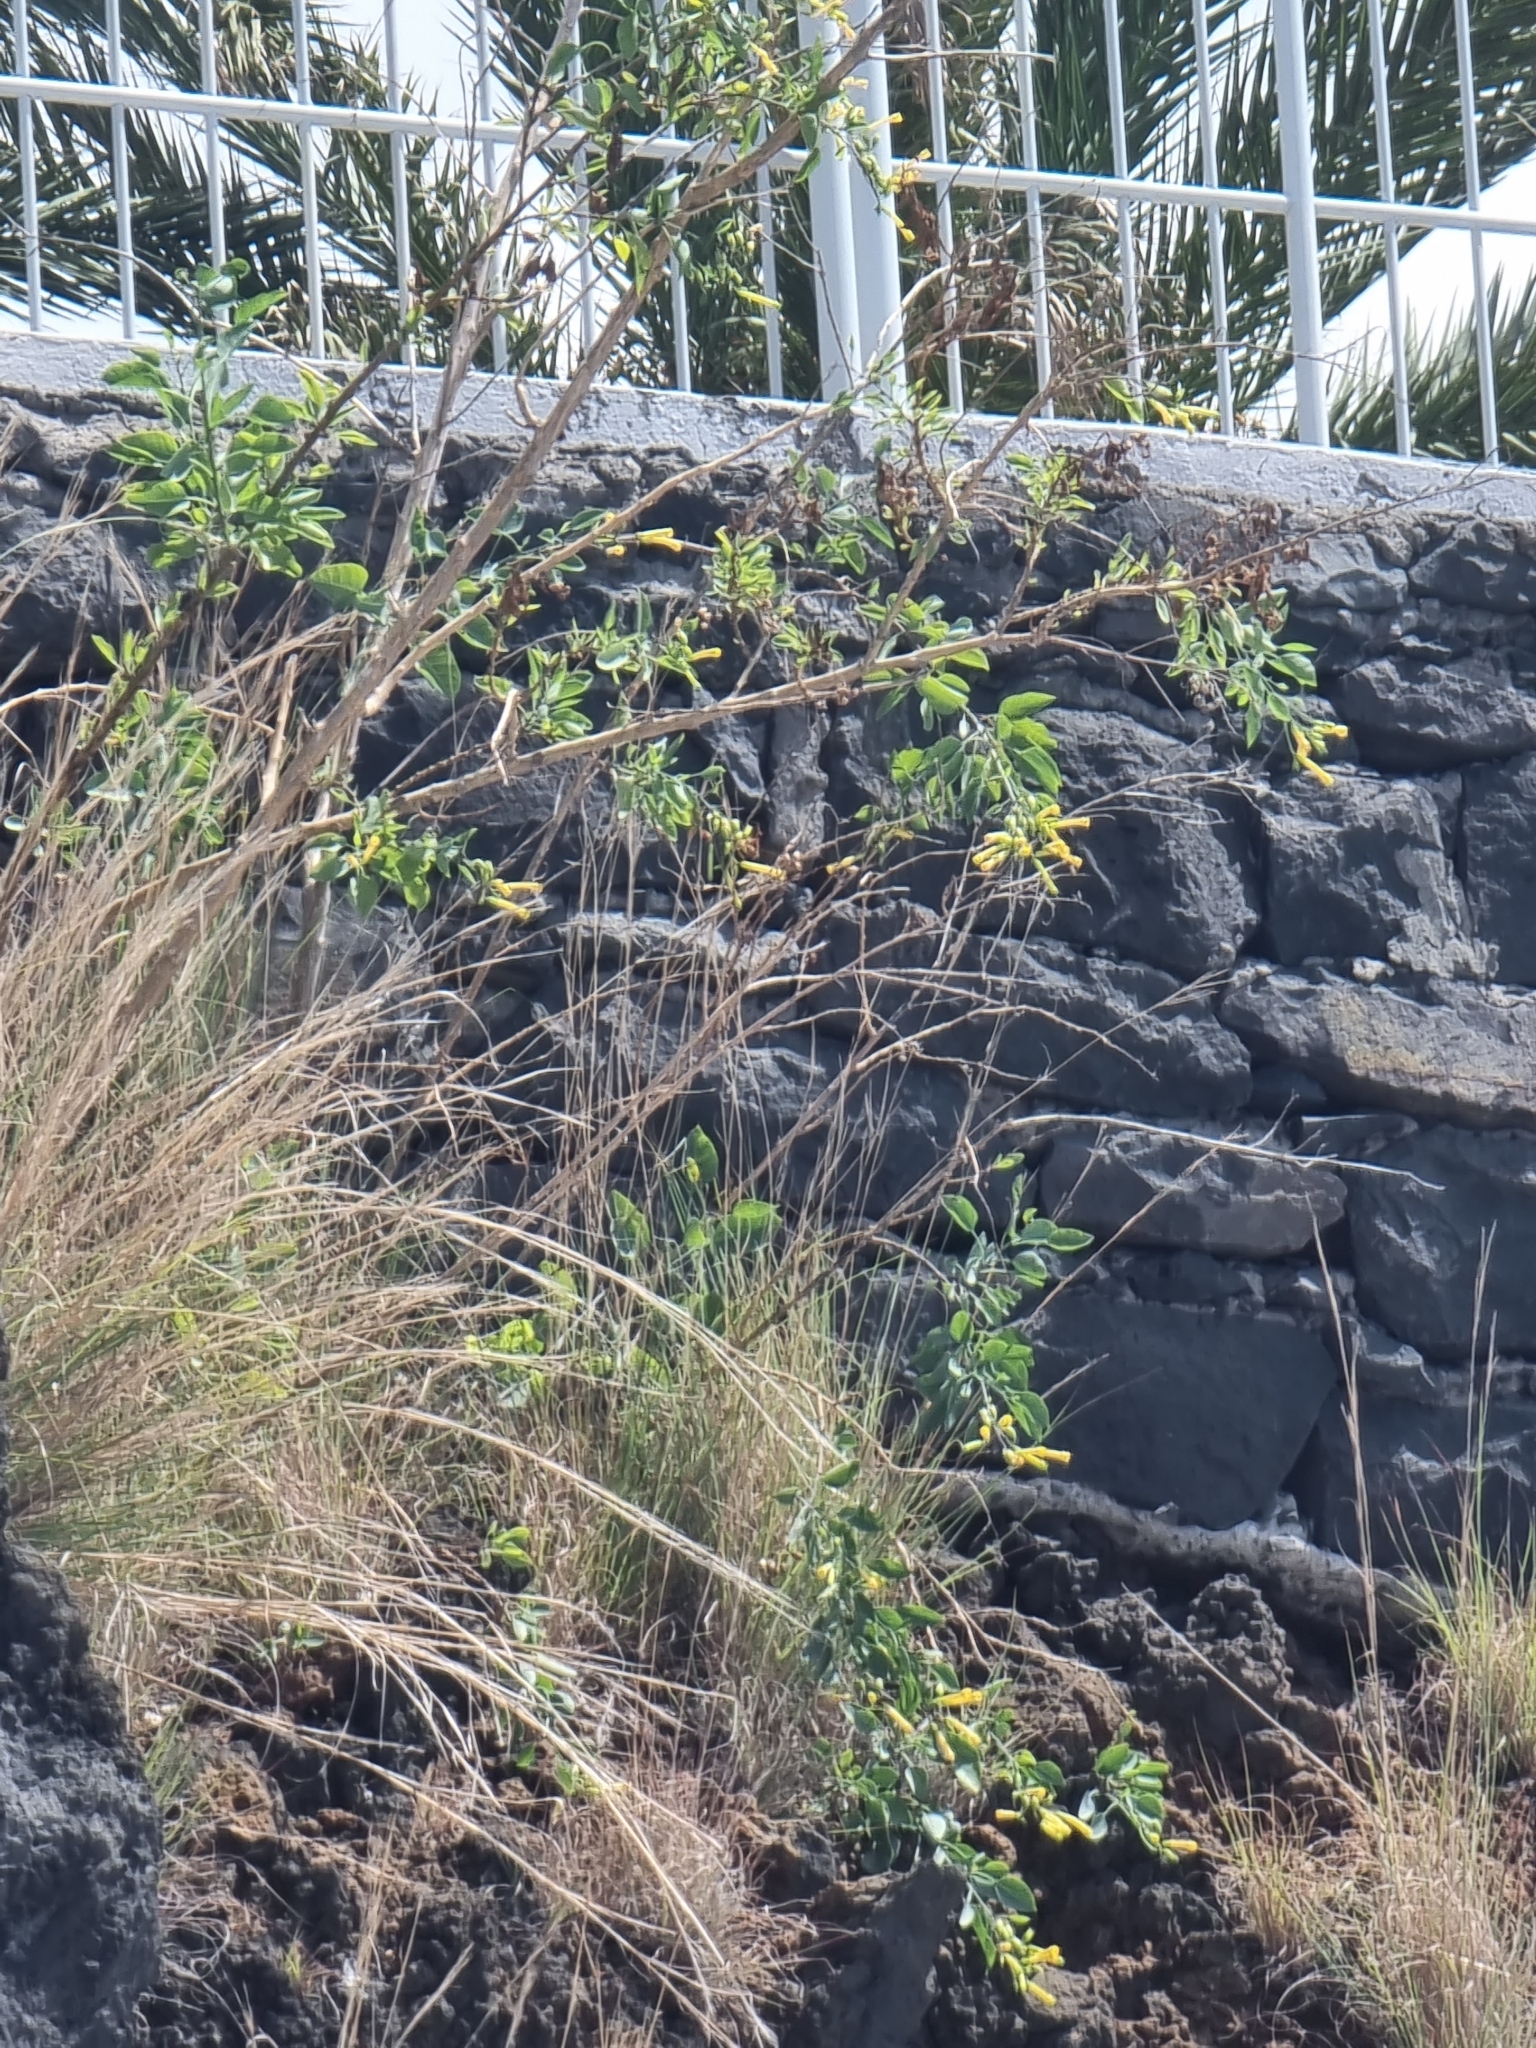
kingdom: Plantae
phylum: Tracheophyta
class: Magnoliopsida
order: Solanales
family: Solanaceae
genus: Nicotiana
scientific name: Nicotiana glauca
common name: Tree tobacco
